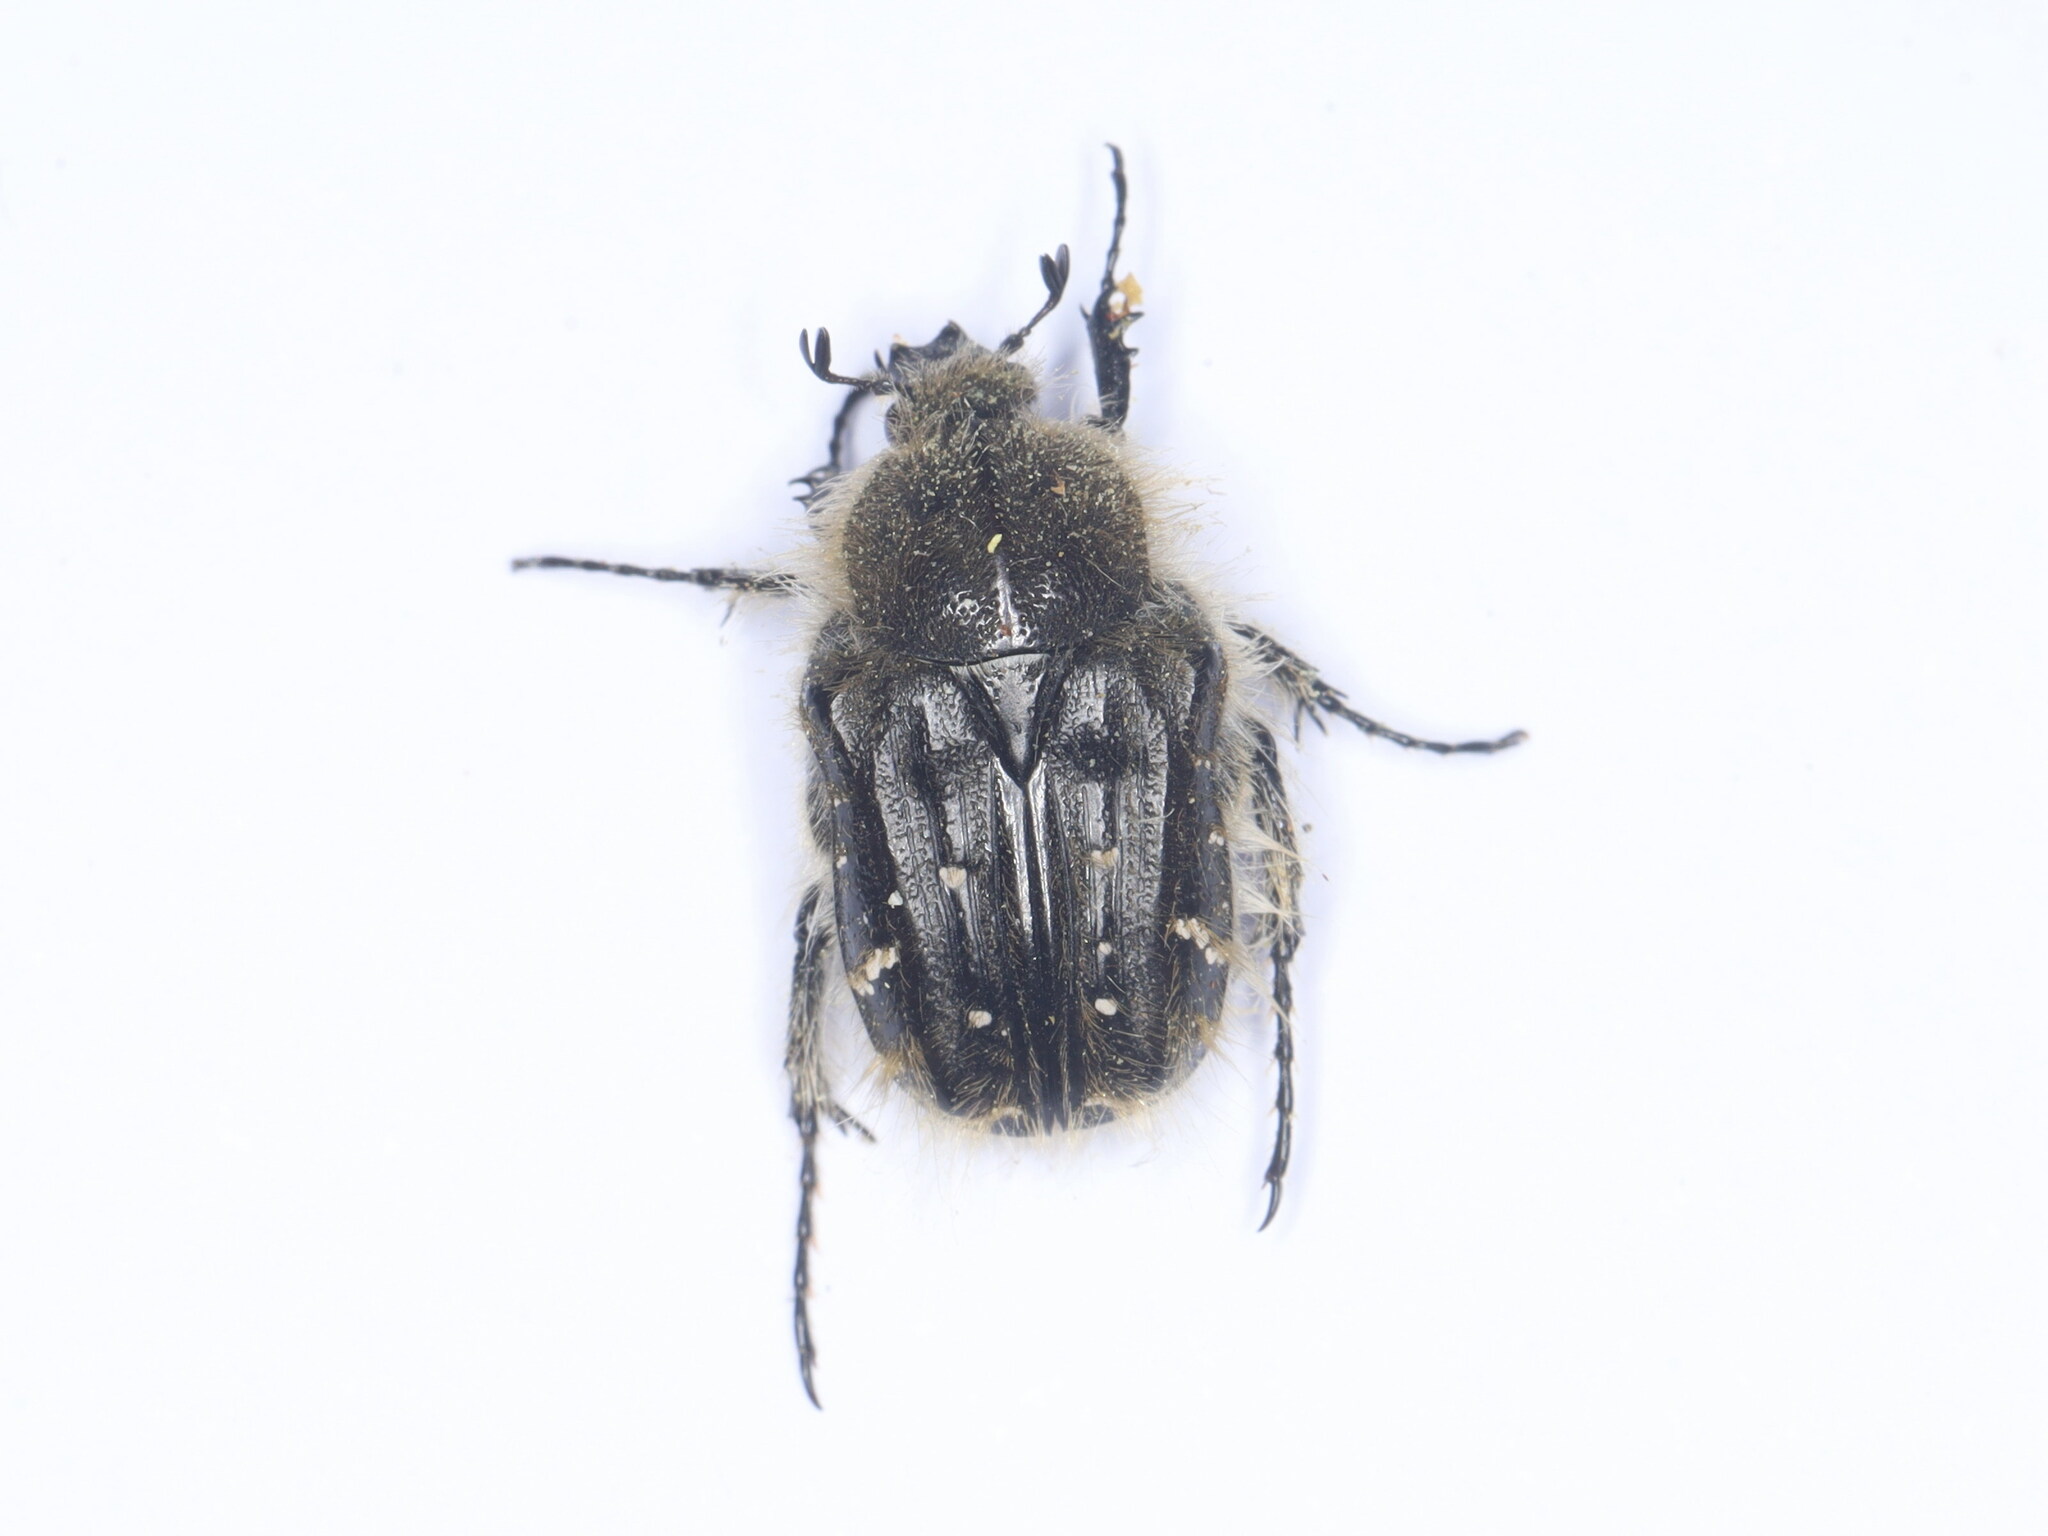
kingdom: Animalia
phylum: Arthropoda
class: Insecta
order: Coleoptera
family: Scarabaeidae
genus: Tropinota
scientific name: Tropinota squalida
